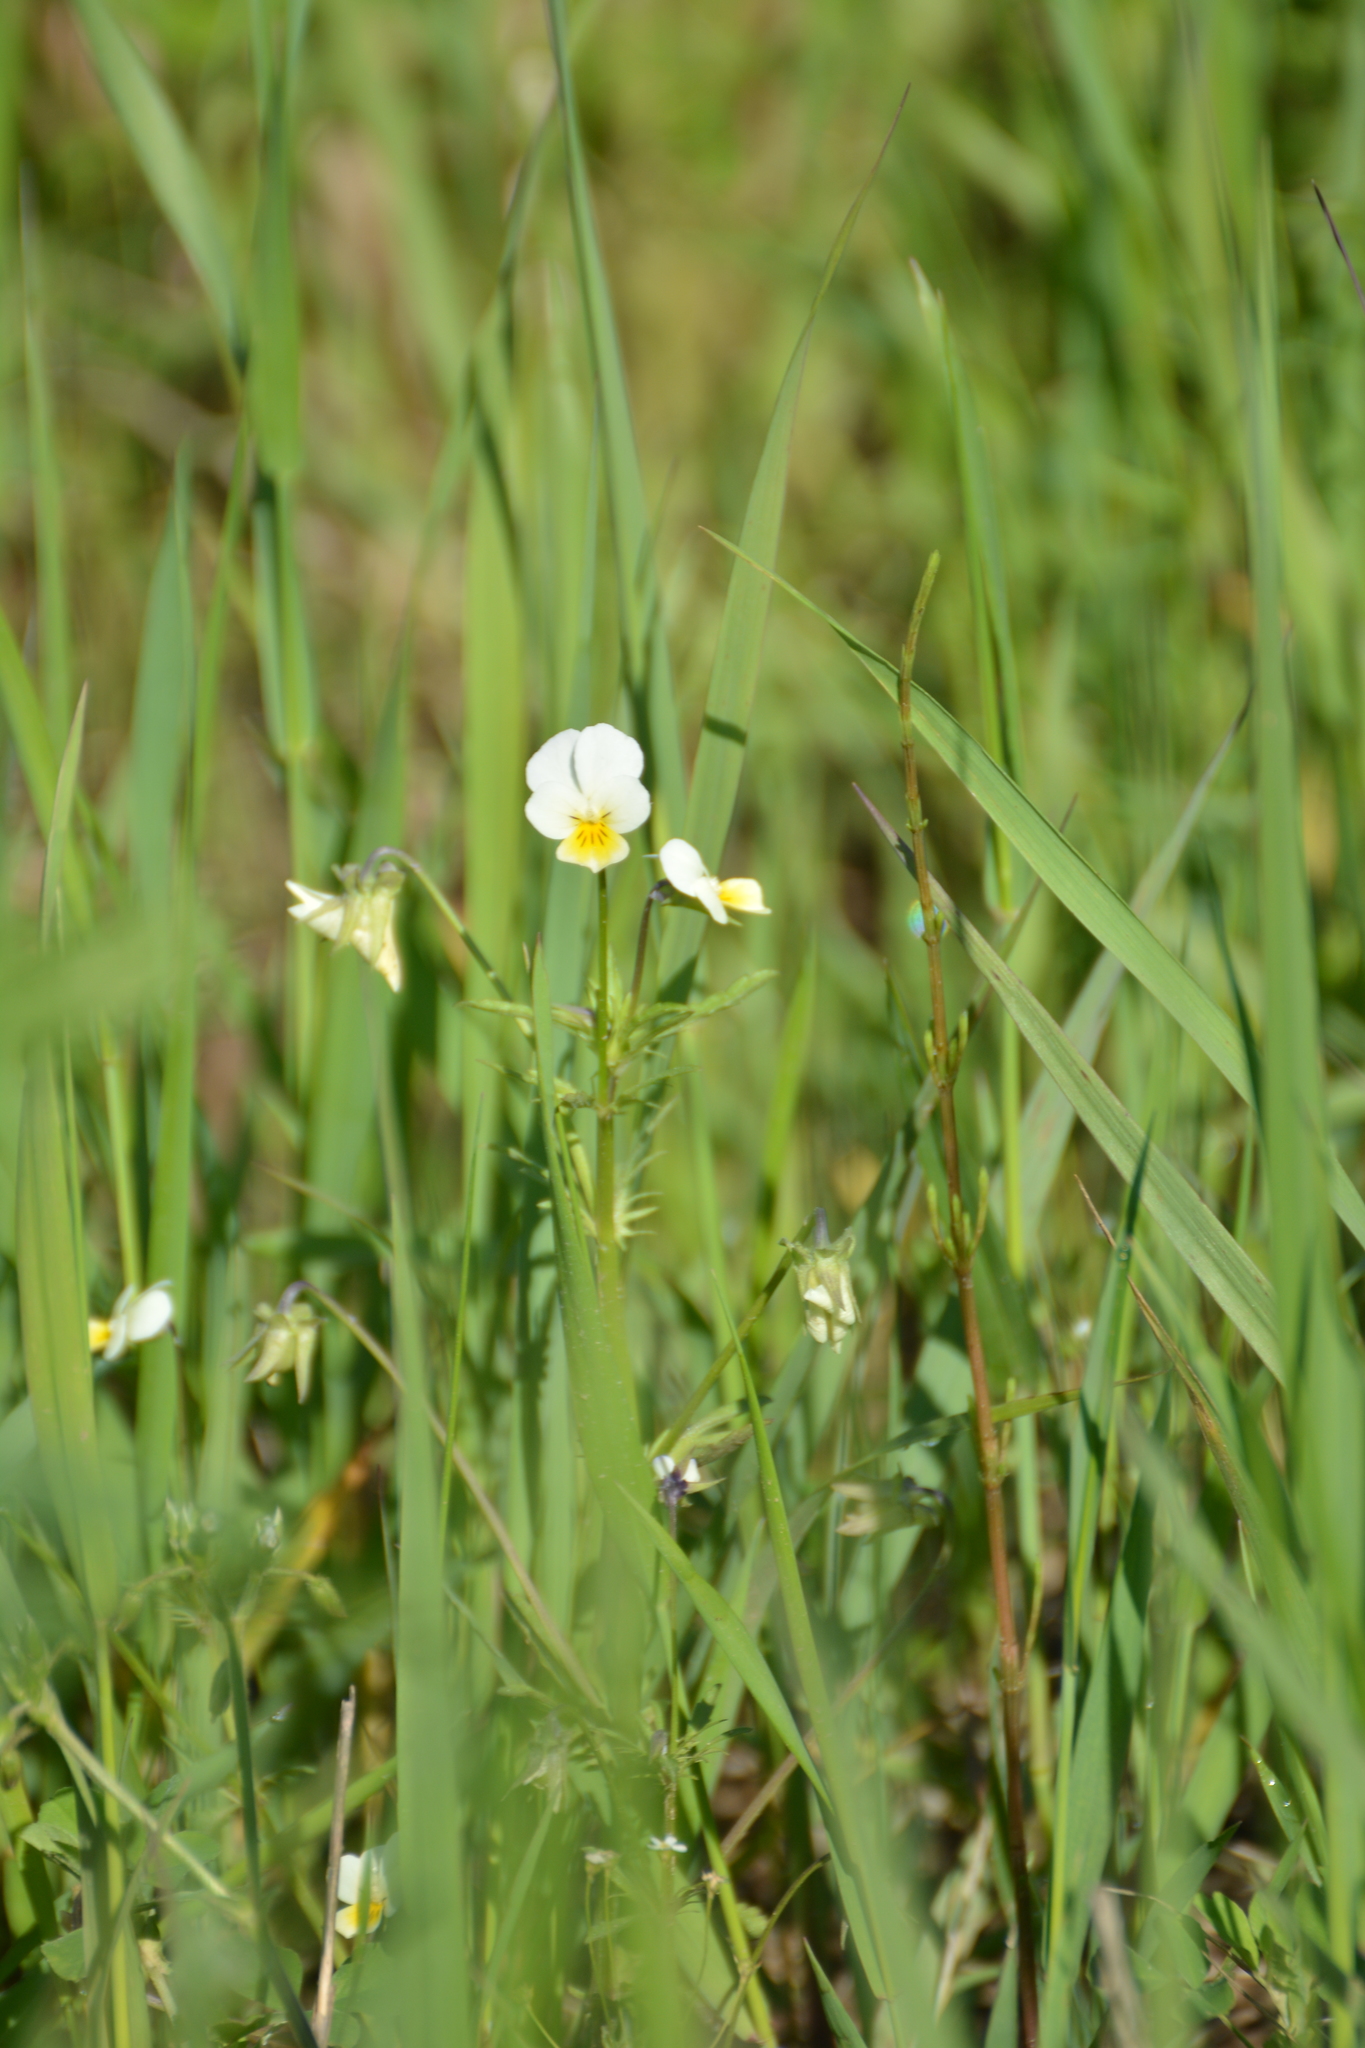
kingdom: Plantae
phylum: Tracheophyta
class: Magnoliopsida
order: Malpighiales
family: Violaceae
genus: Viola
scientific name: Viola arvensis
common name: Field pansy
